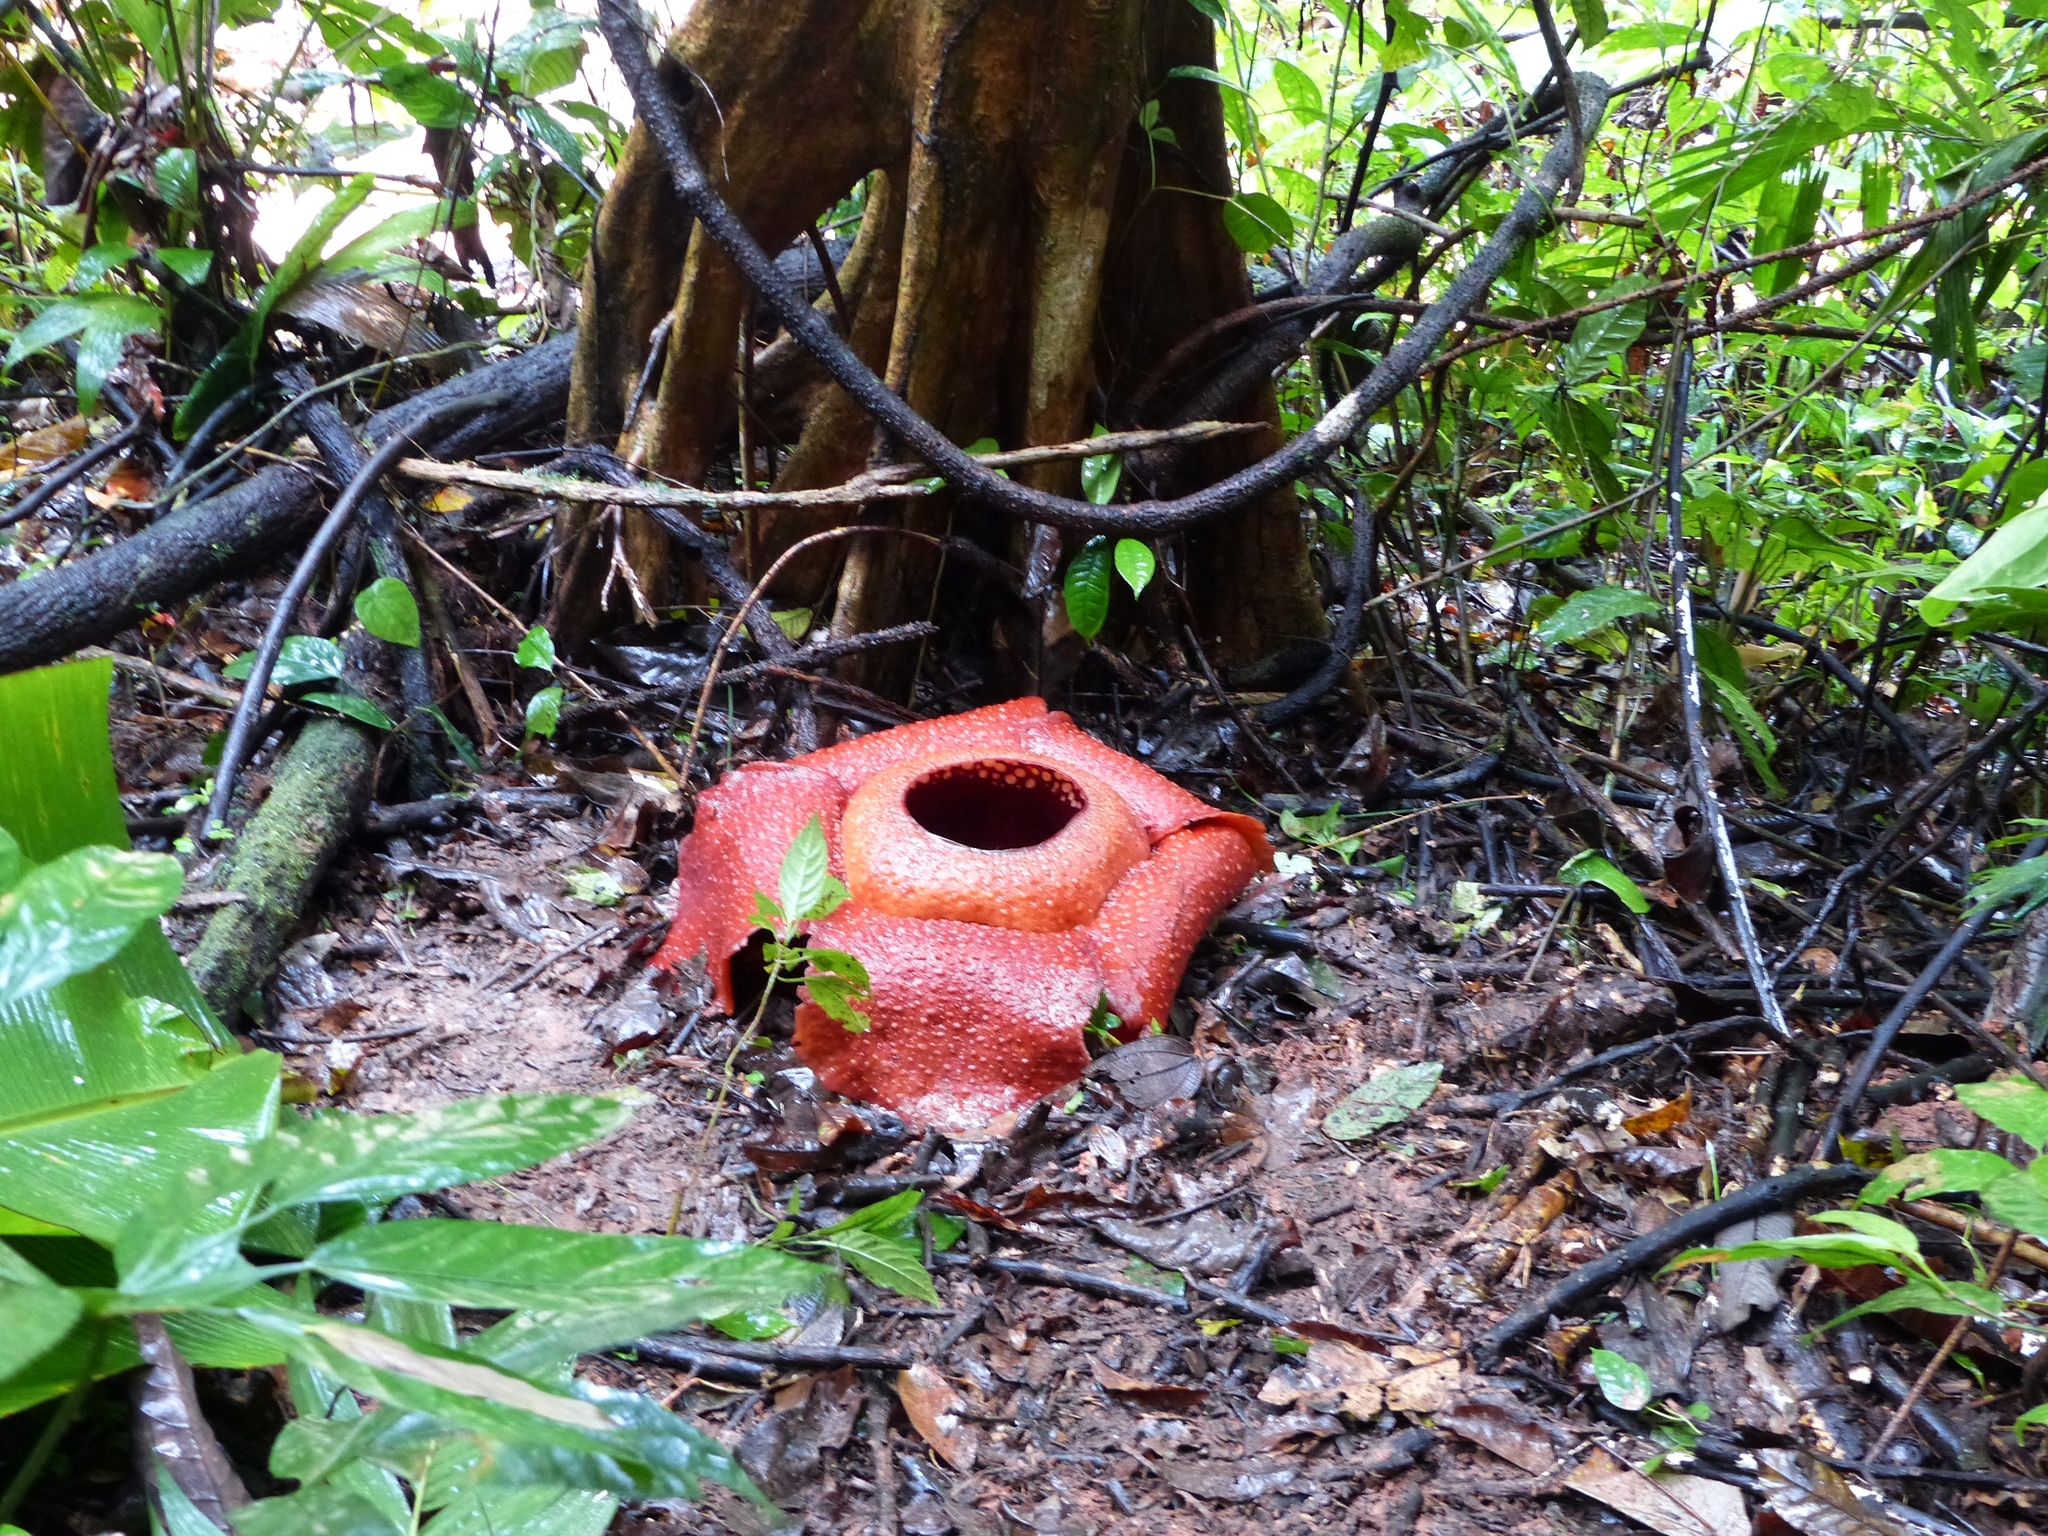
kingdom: Plantae
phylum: Tracheophyta
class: Magnoliopsida
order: Malpighiales
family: Rafflesiaceae
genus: Rafflesia
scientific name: Rafflesia kerrii
